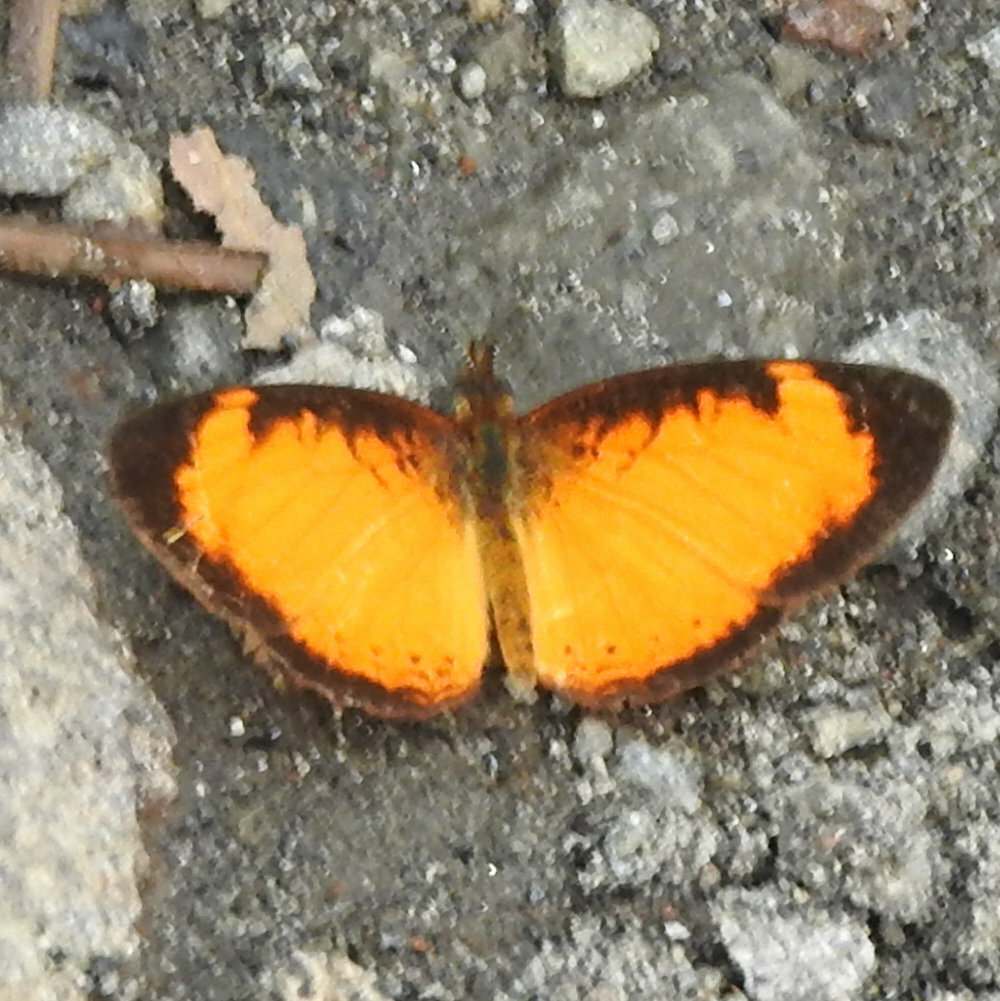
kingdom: Animalia
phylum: Arthropoda
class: Insecta
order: Lepidoptera
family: Nymphalidae
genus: Tegosa
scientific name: Tegosa anieta
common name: Black-bordered crescent
